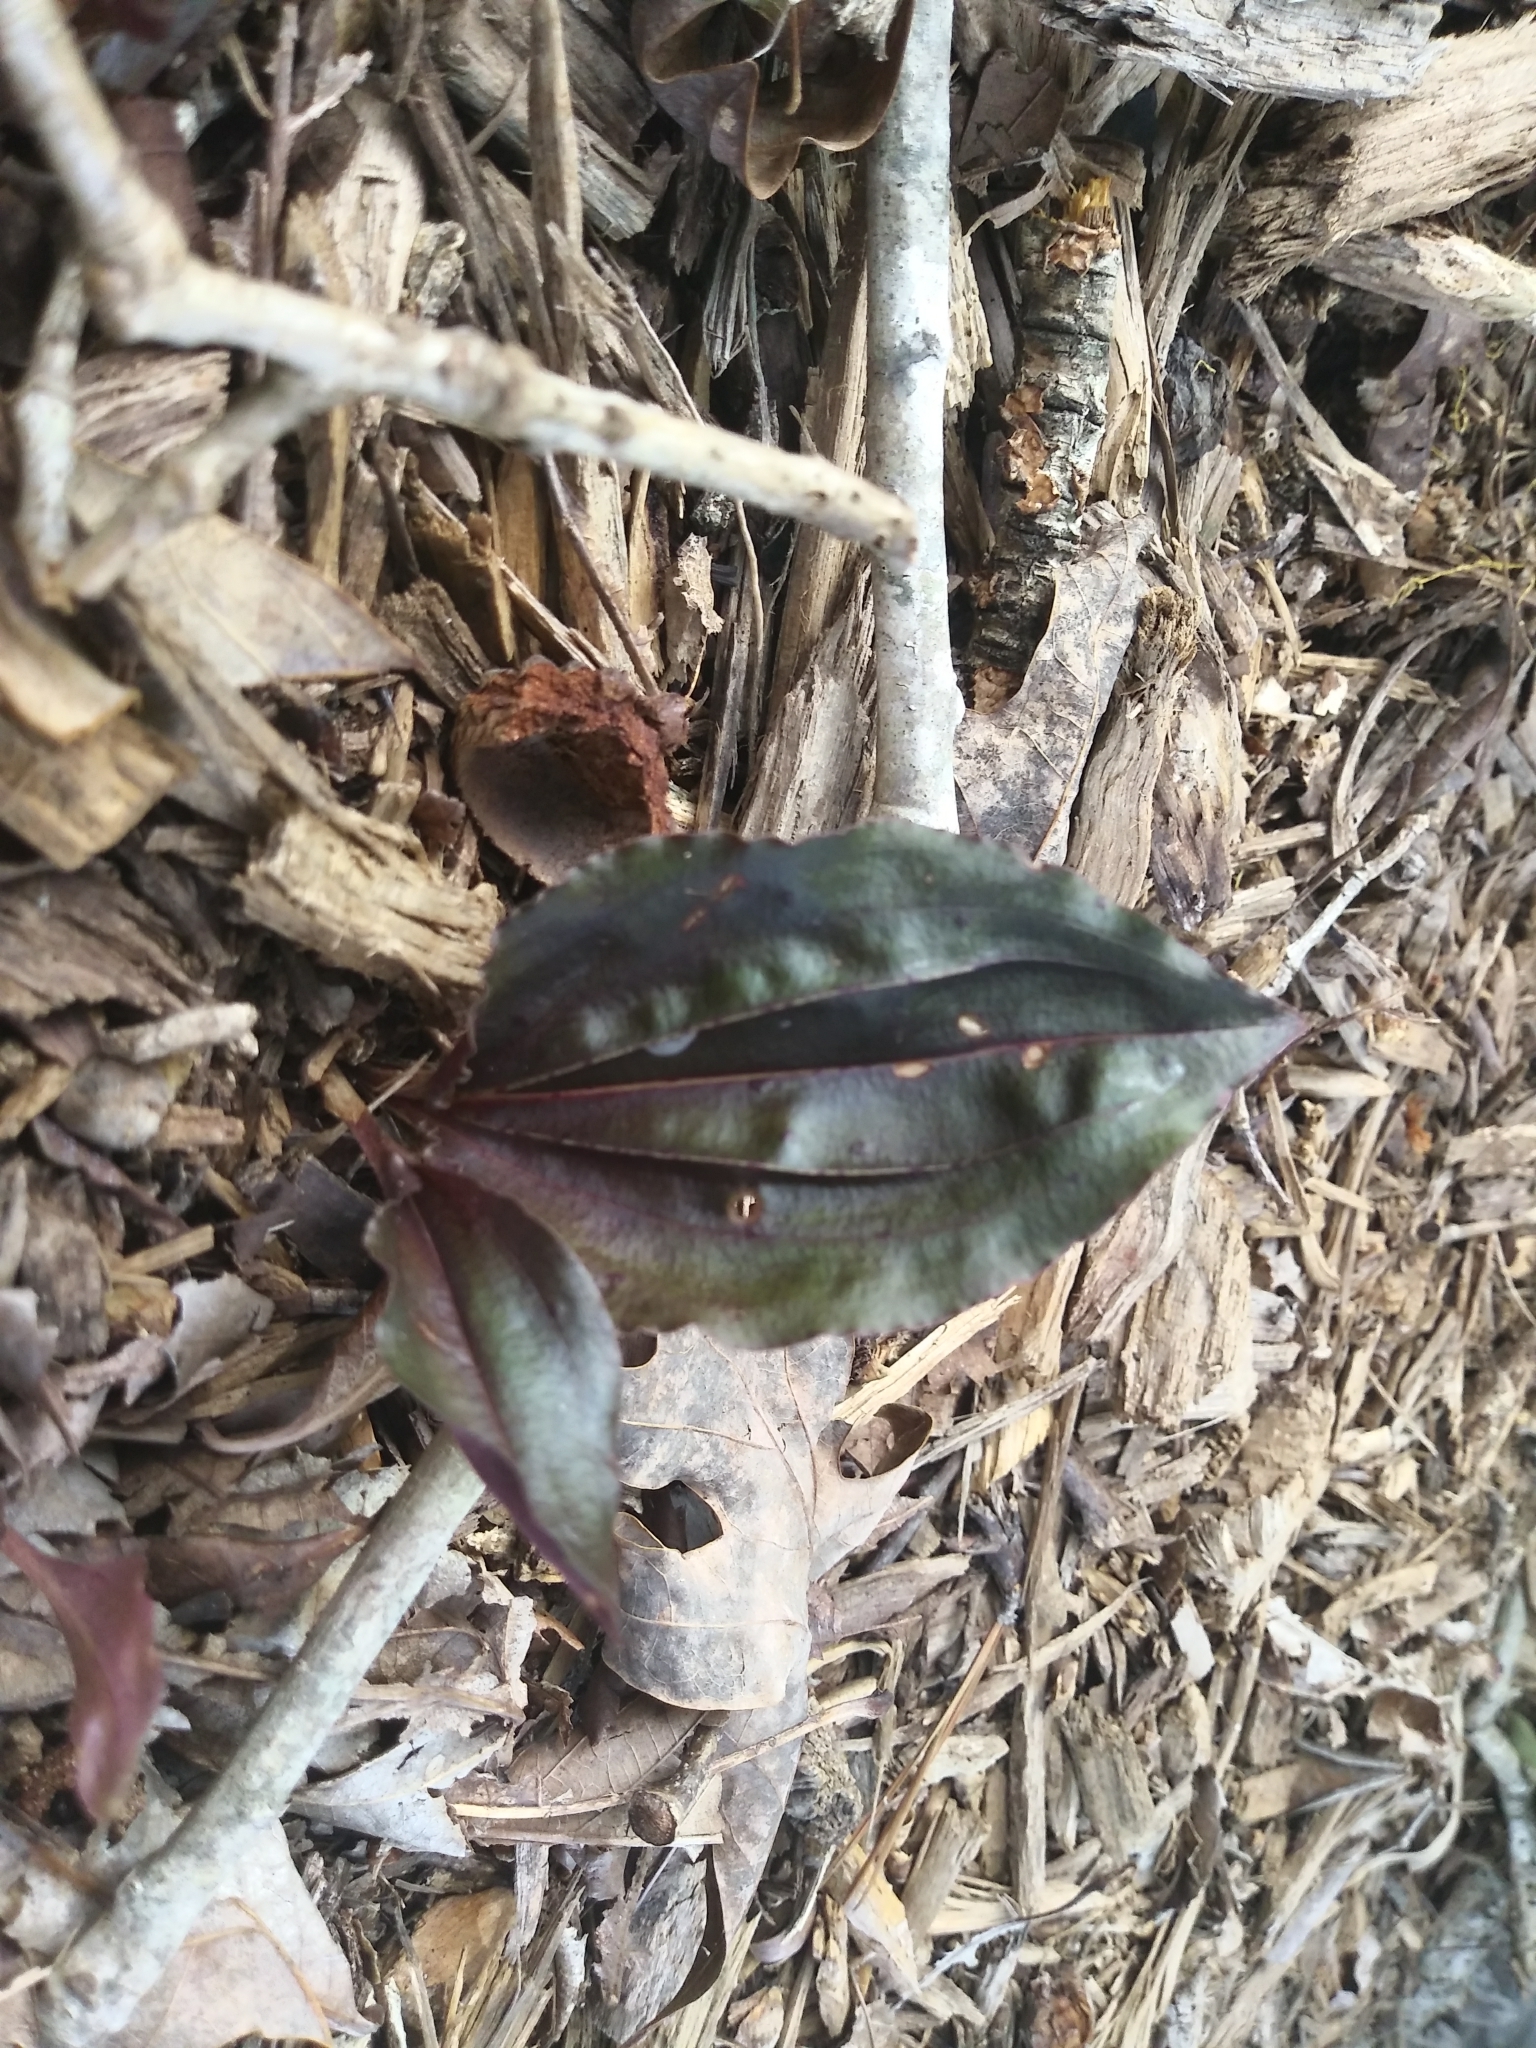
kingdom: Plantae
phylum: Tracheophyta
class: Liliopsida
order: Asparagales
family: Orchidaceae
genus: Tipularia
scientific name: Tipularia discolor
